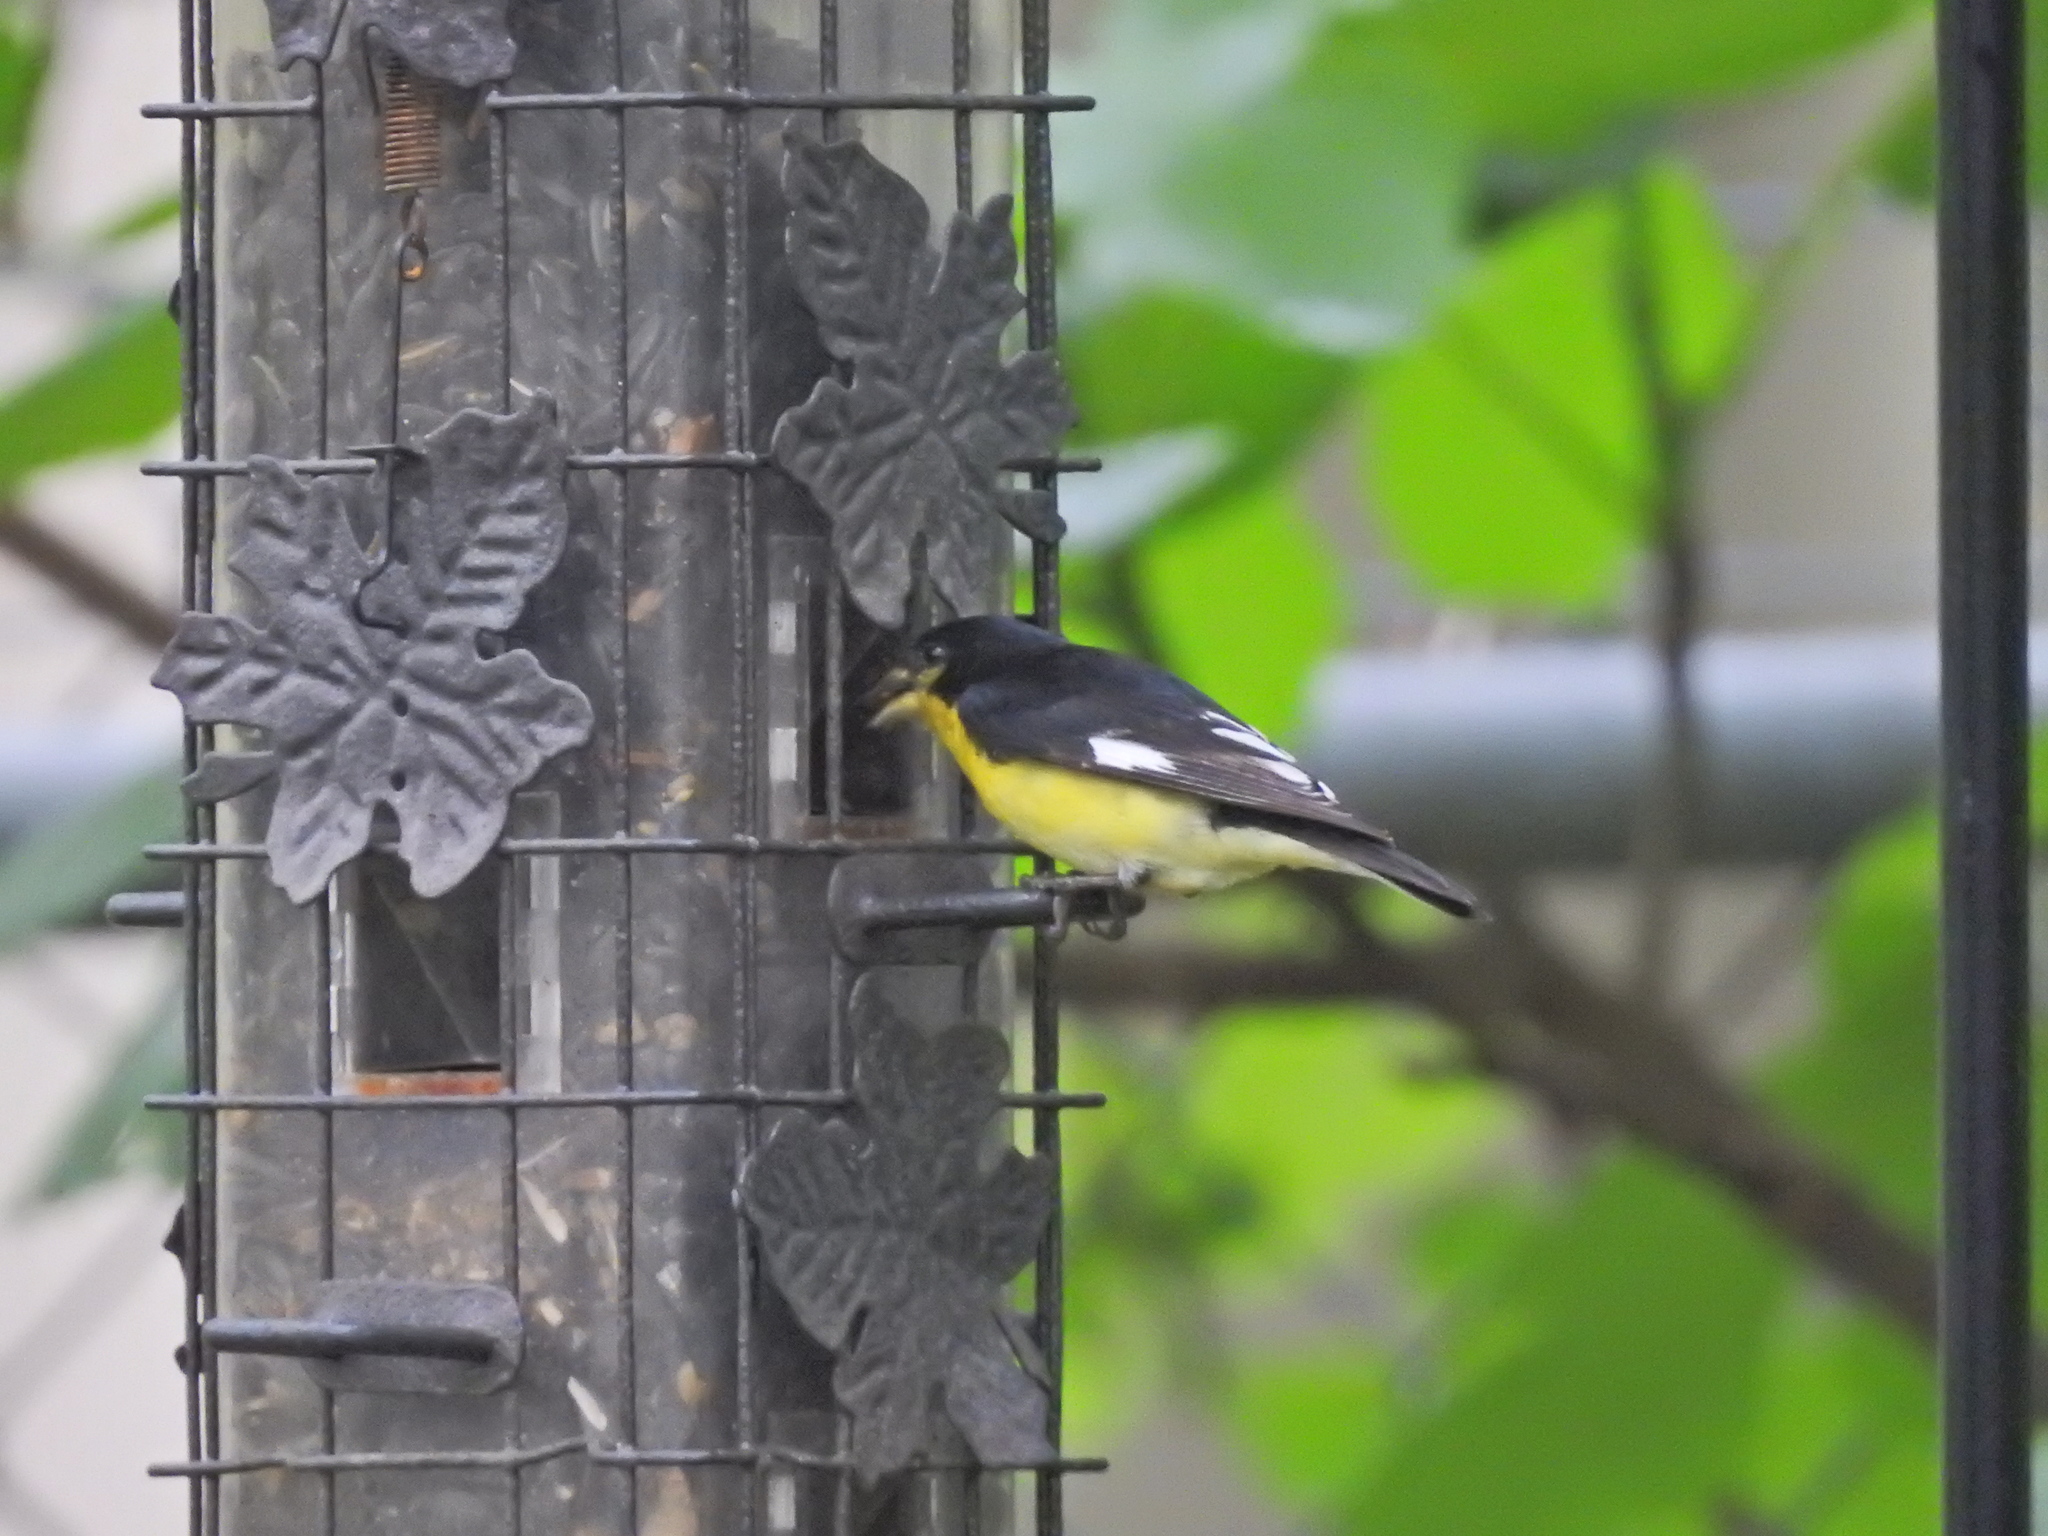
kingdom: Animalia
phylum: Chordata
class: Aves
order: Passeriformes
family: Fringillidae
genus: Spinus
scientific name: Spinus psaltria
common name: Lesser goldfinch
